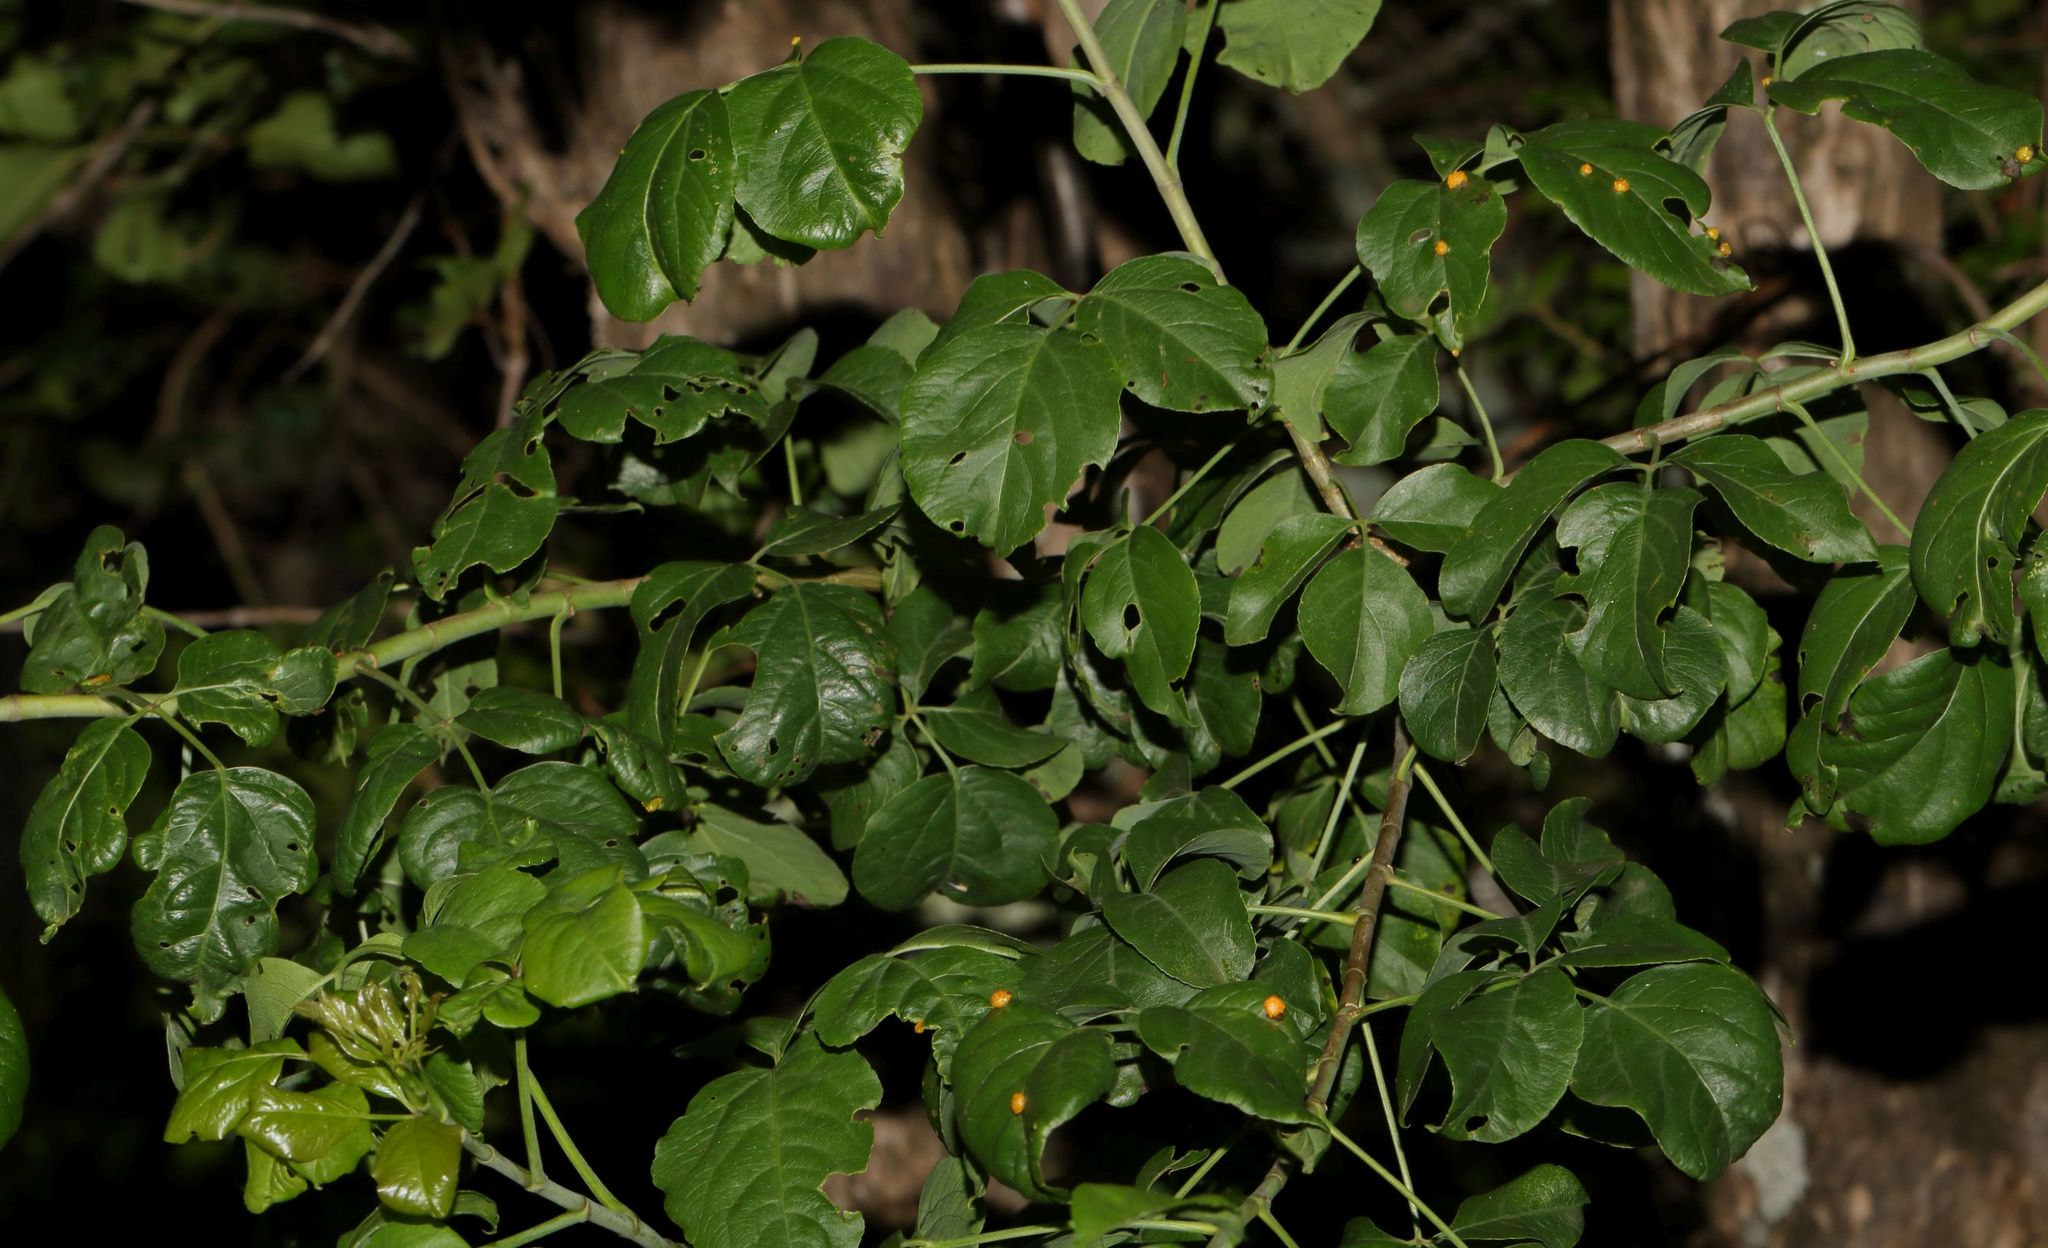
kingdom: Plantae
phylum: Tracheophyta
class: Magnoliopsida
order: Apiales
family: Apiaceae
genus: Heteromorpha
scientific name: Heteromorpha arborescens
